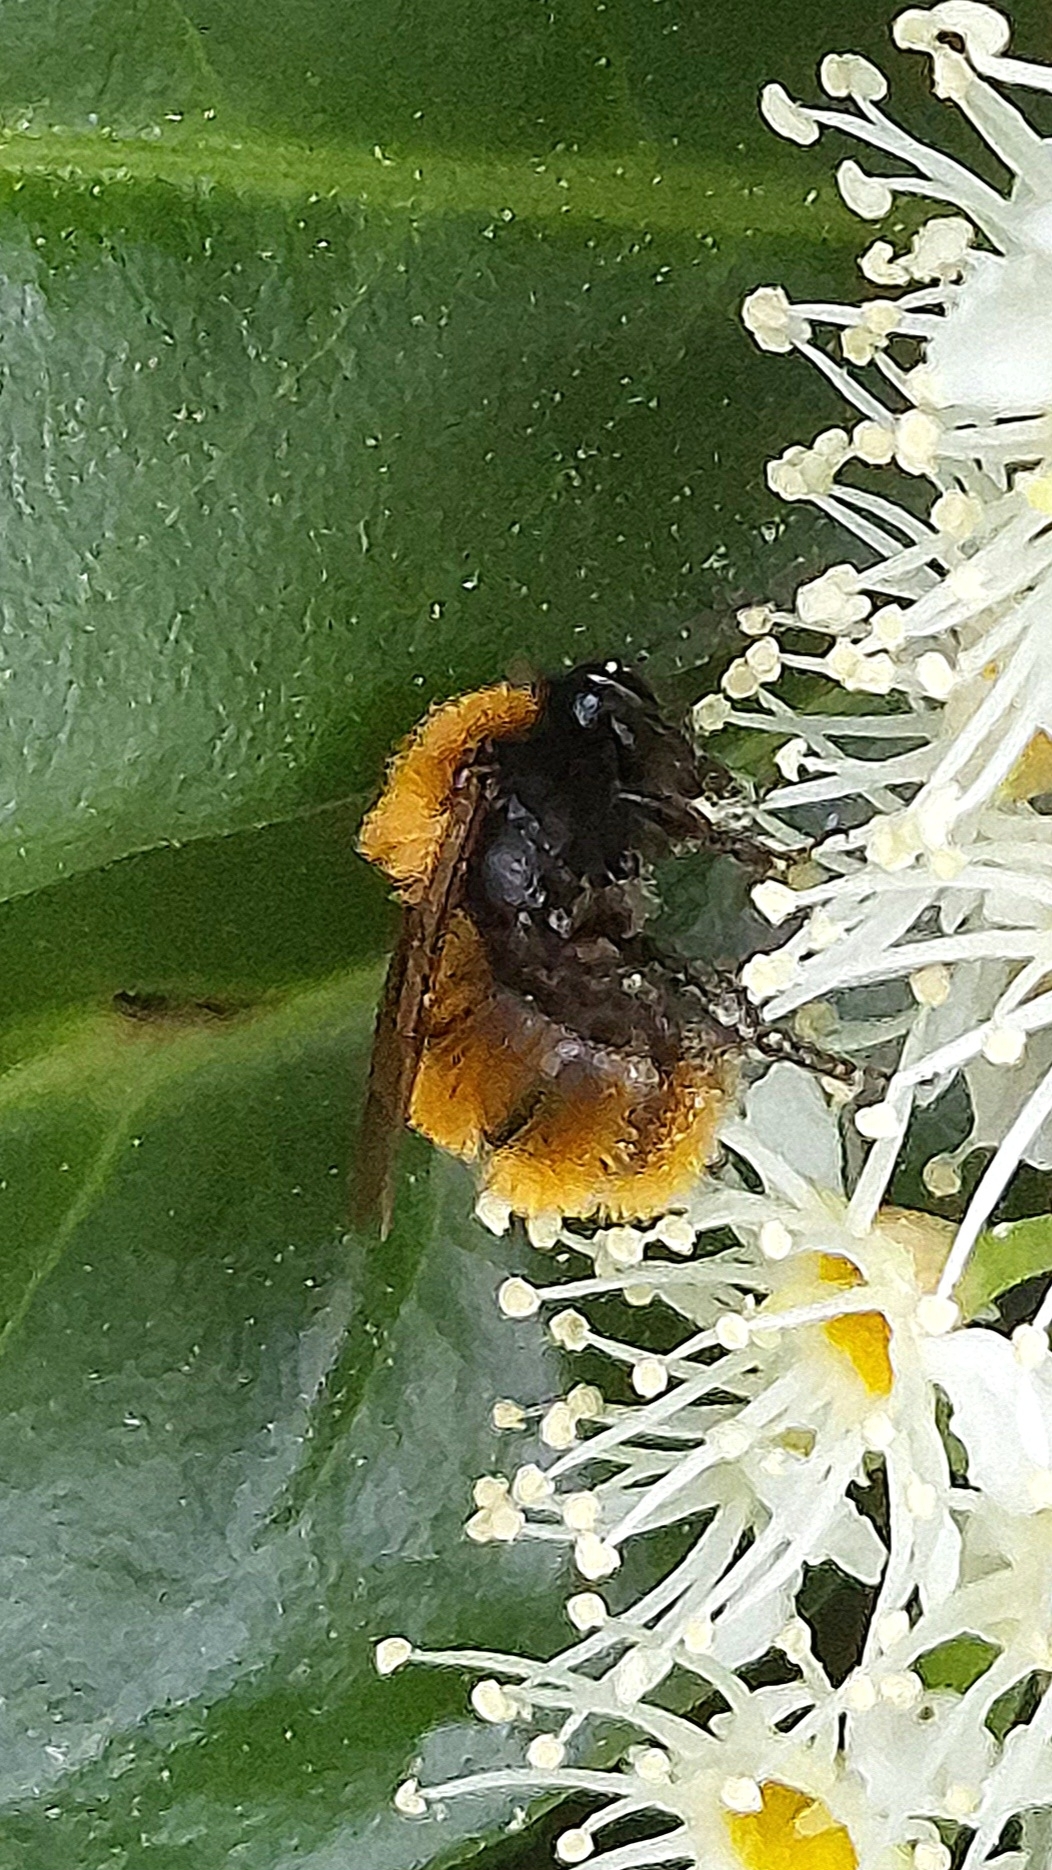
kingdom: Animalia
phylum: Arthropoda
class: Insecta
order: Hymenoptera
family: Andrenidae
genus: Andrena
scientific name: Andrena fulva
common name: Tawny mining bee
